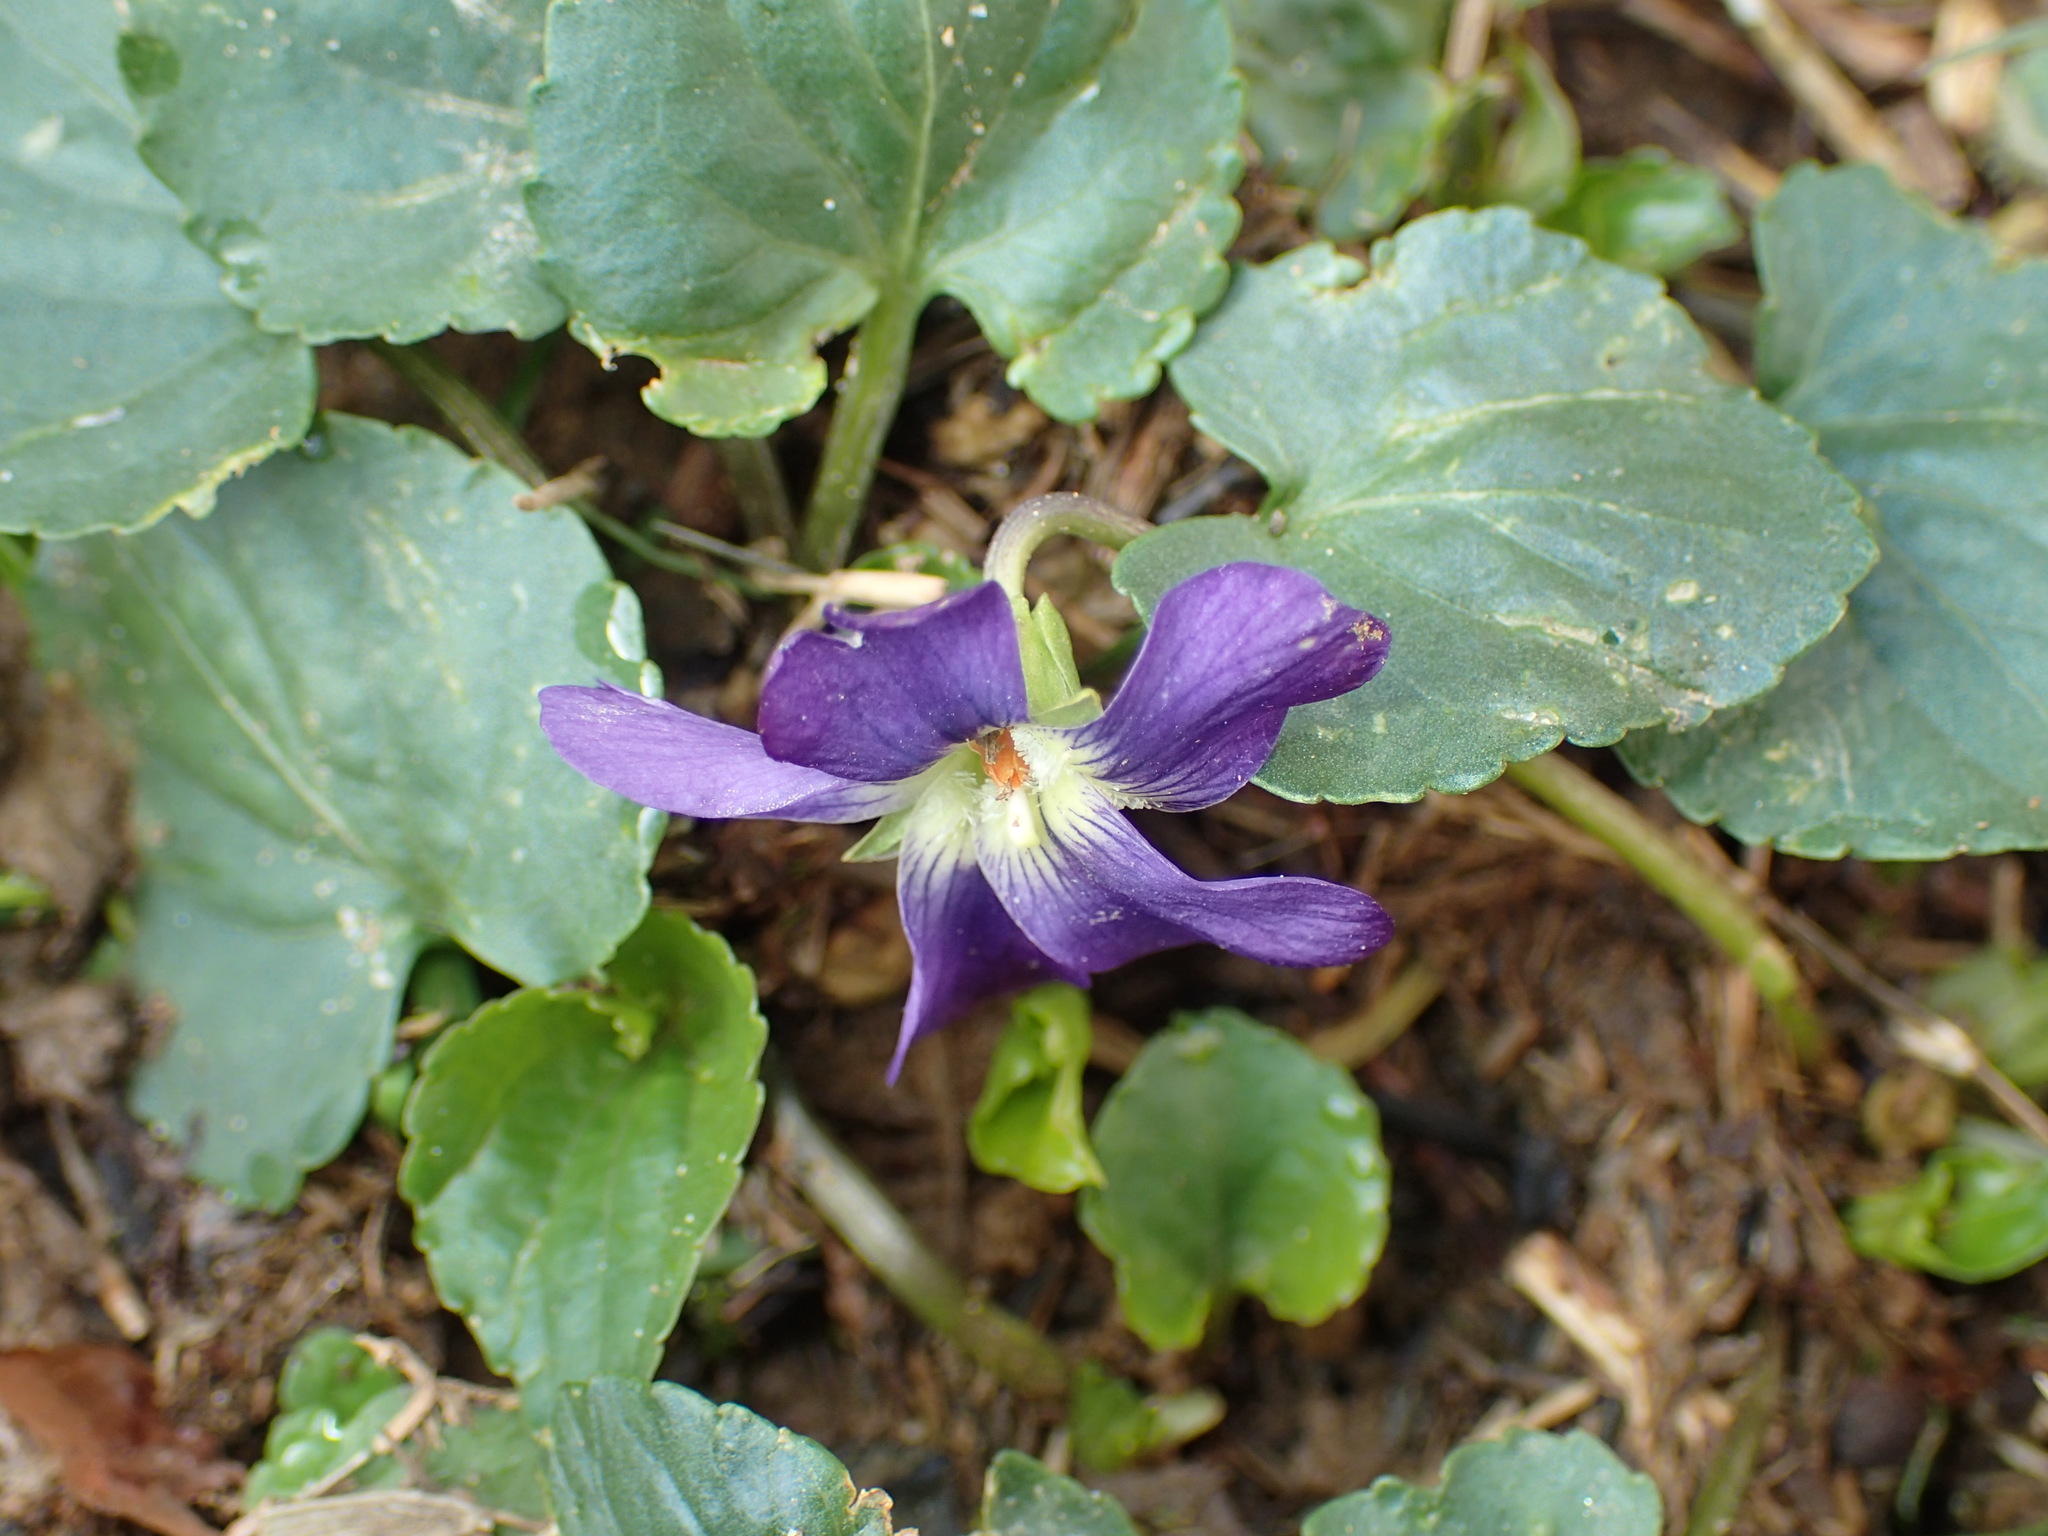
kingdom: Plantae
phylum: Tracheophyta
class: Magnoliopsida
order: Malpighiales
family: Violaceae
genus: Viola
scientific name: Viola sororia
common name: Dooryard violet
